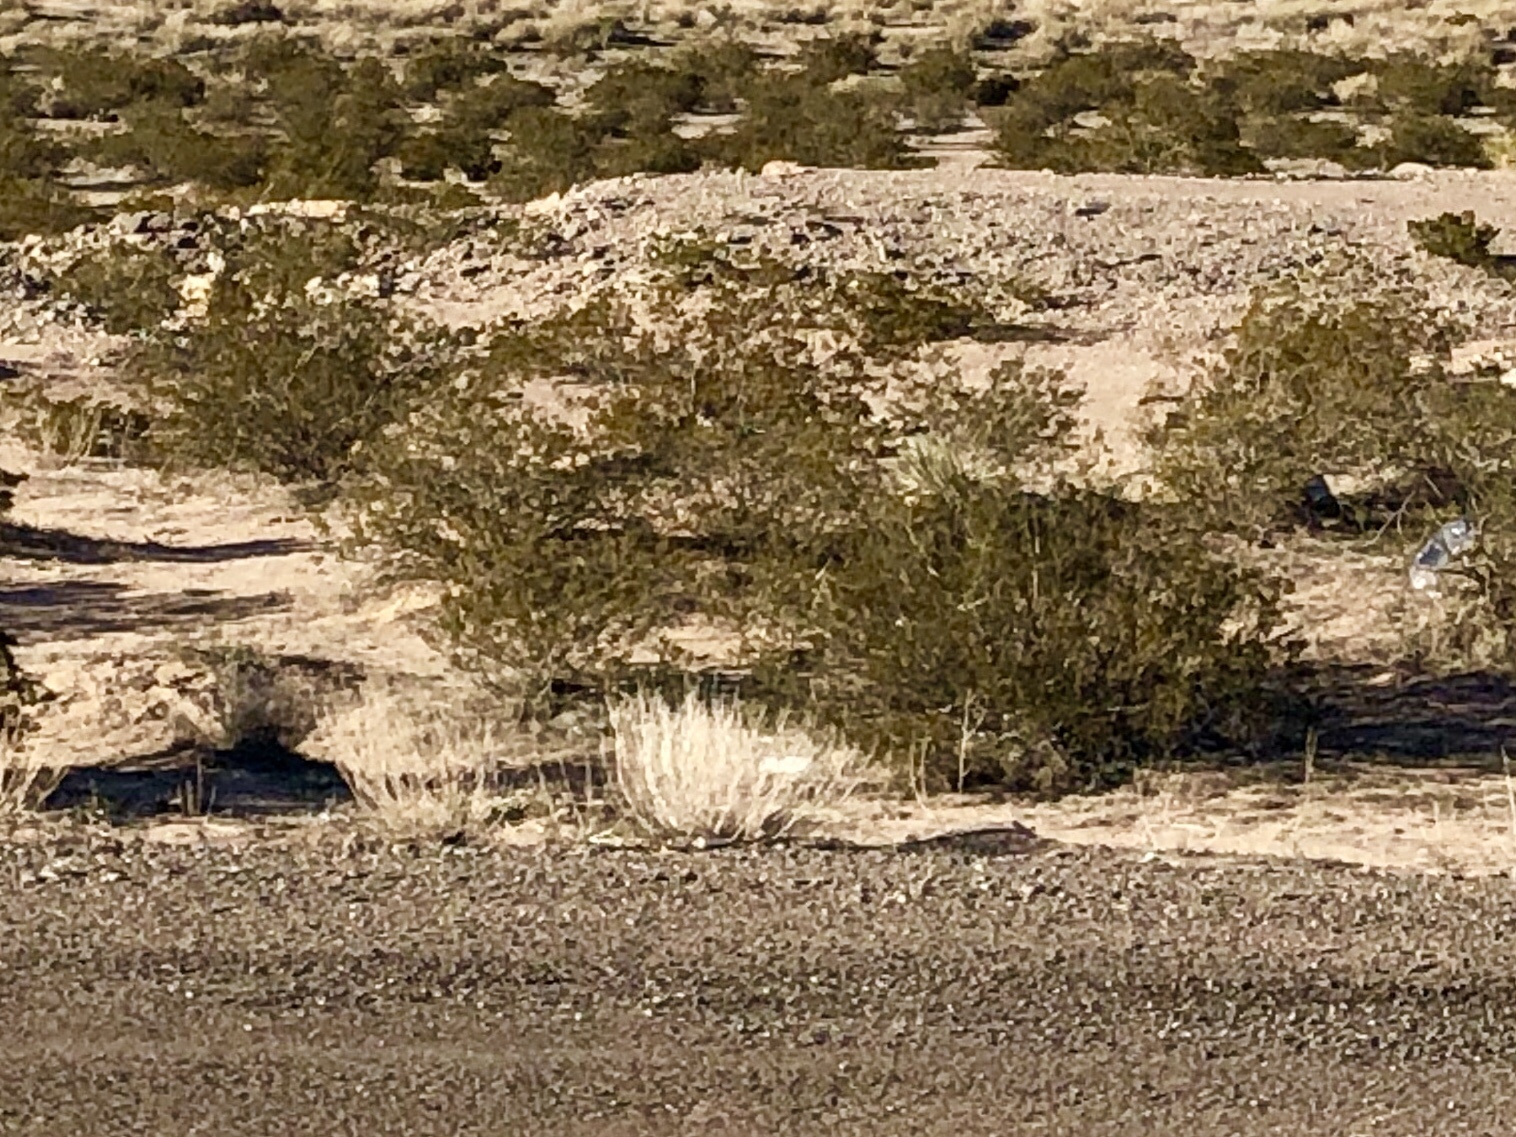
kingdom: Plantae
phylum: Tracheophyta
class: Magnoliopsida
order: Zygophyllales
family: Zygophyllaceae
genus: Larrea
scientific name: Larrea tridentata
